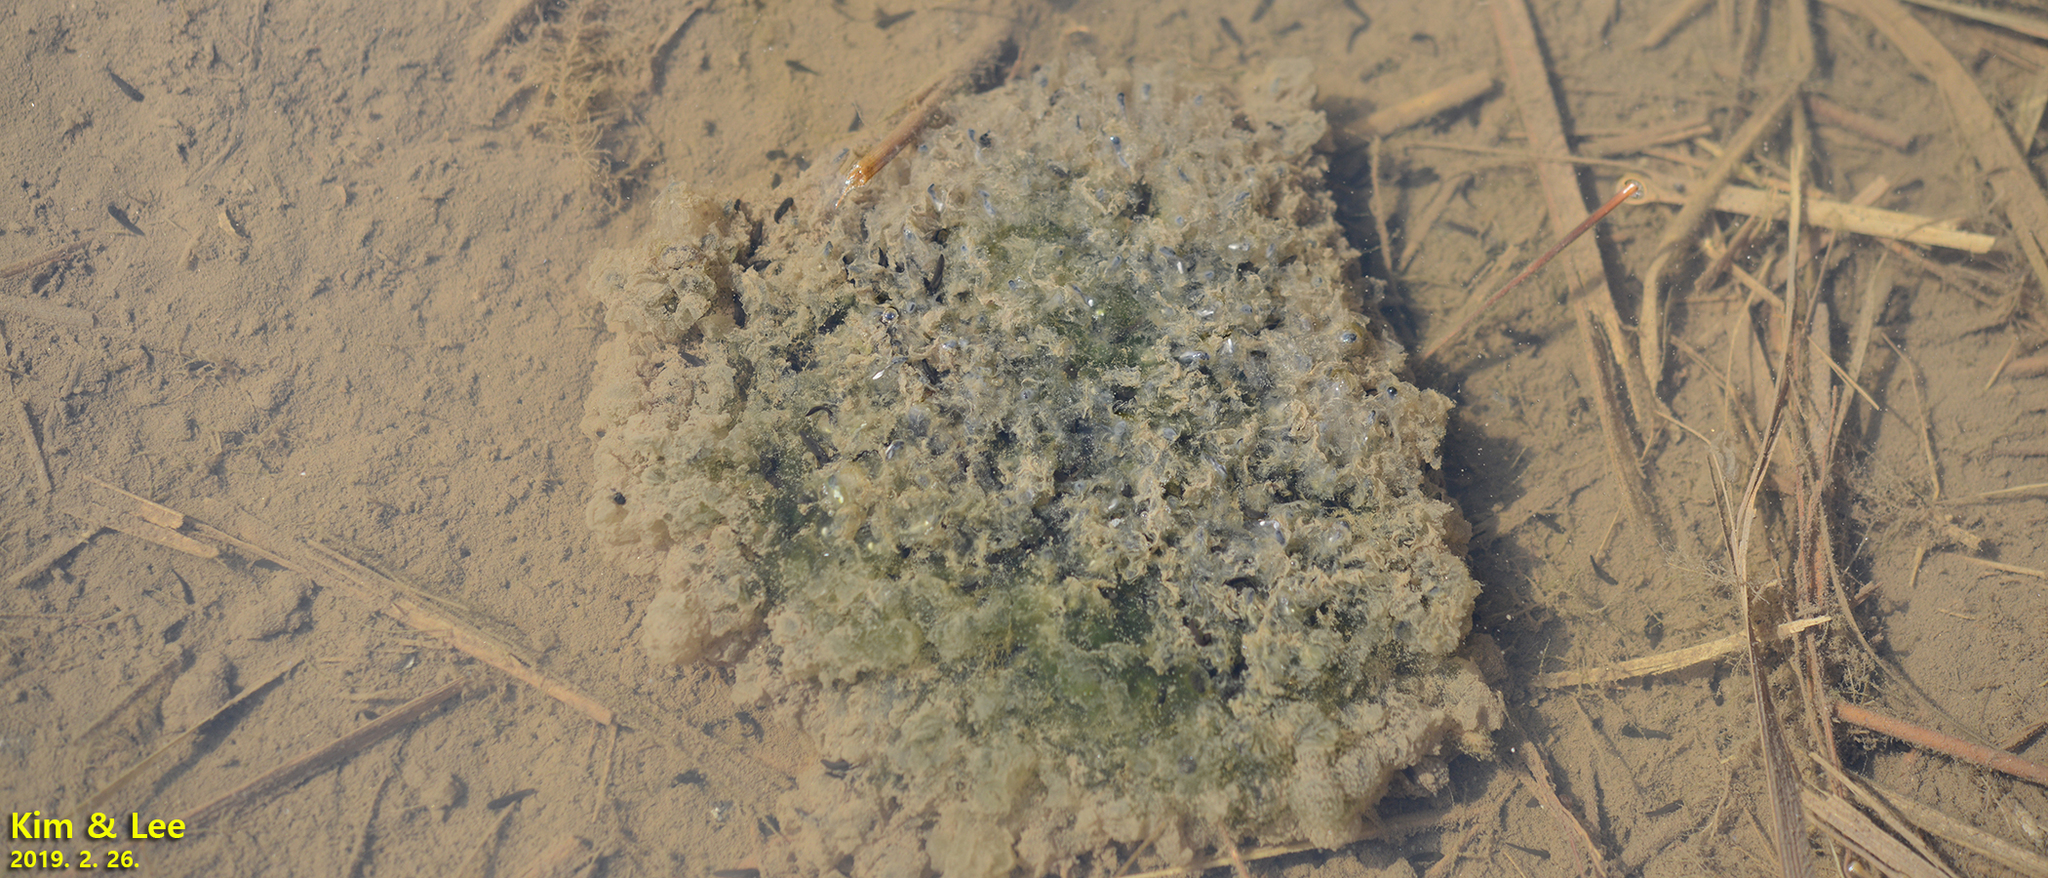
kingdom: Animalia
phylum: Chordata
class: Amphibia
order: Anura
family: Ranidae
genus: Rana
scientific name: Rana uenoi
